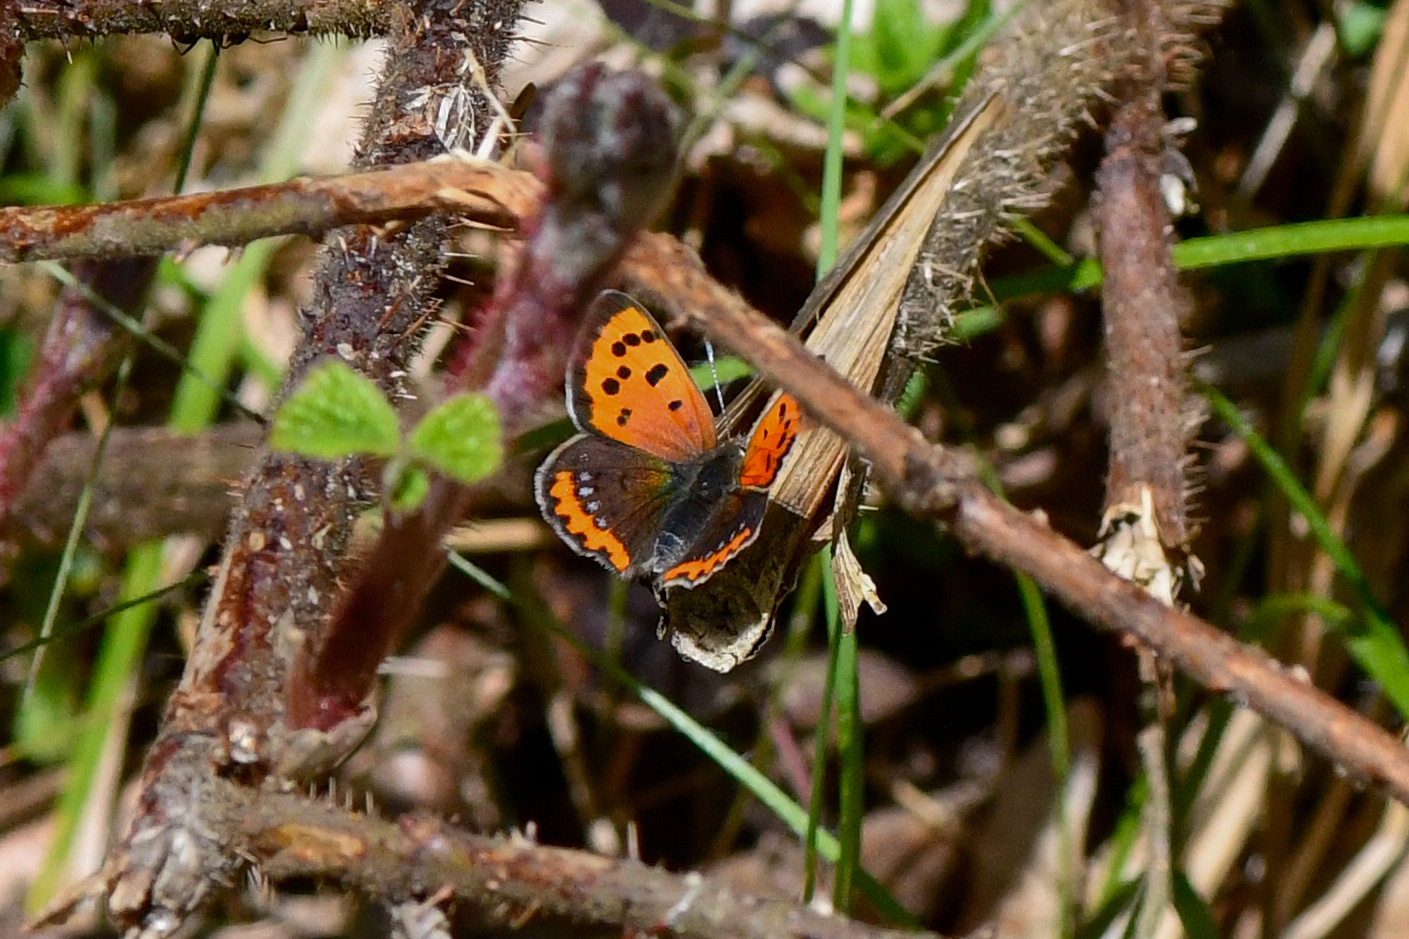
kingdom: Animalia
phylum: Arthropoda
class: Insecta
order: Lepidoptera
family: Lycaenidae
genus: Lycaena
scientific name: Lycaena phlaeas
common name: Small copper
